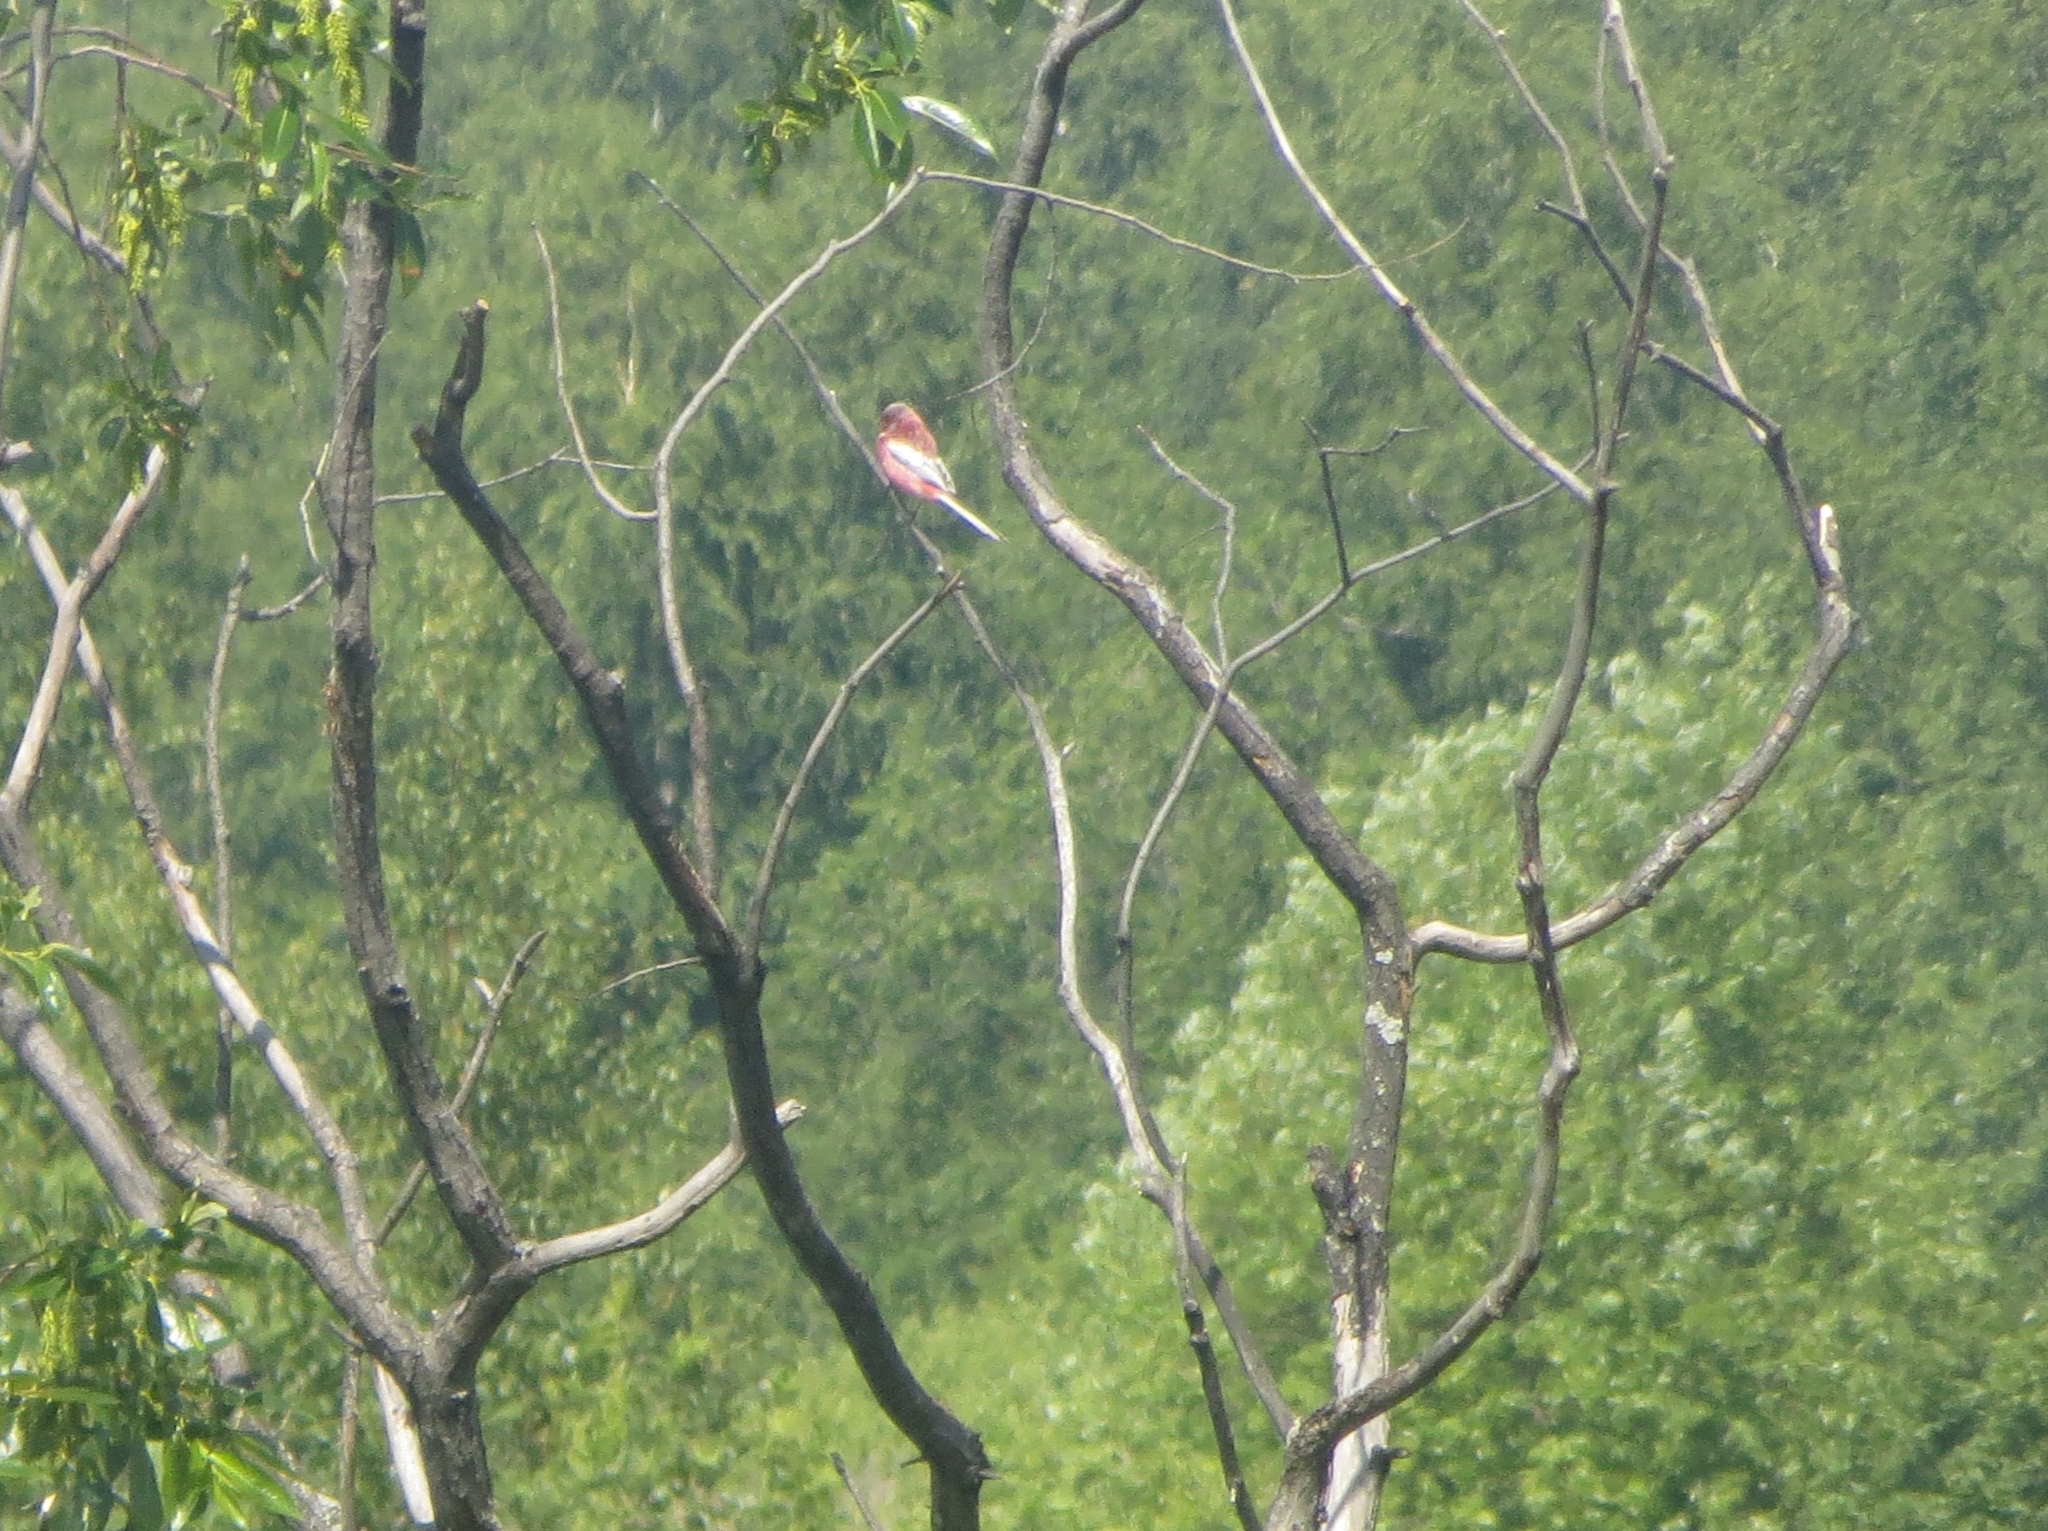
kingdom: Animalia
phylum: Chordata
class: Aves
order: Passeriformes
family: Fringillidae
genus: Carpodacus
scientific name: Carpodacus sibiricus
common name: Long-tailed rosefinch
